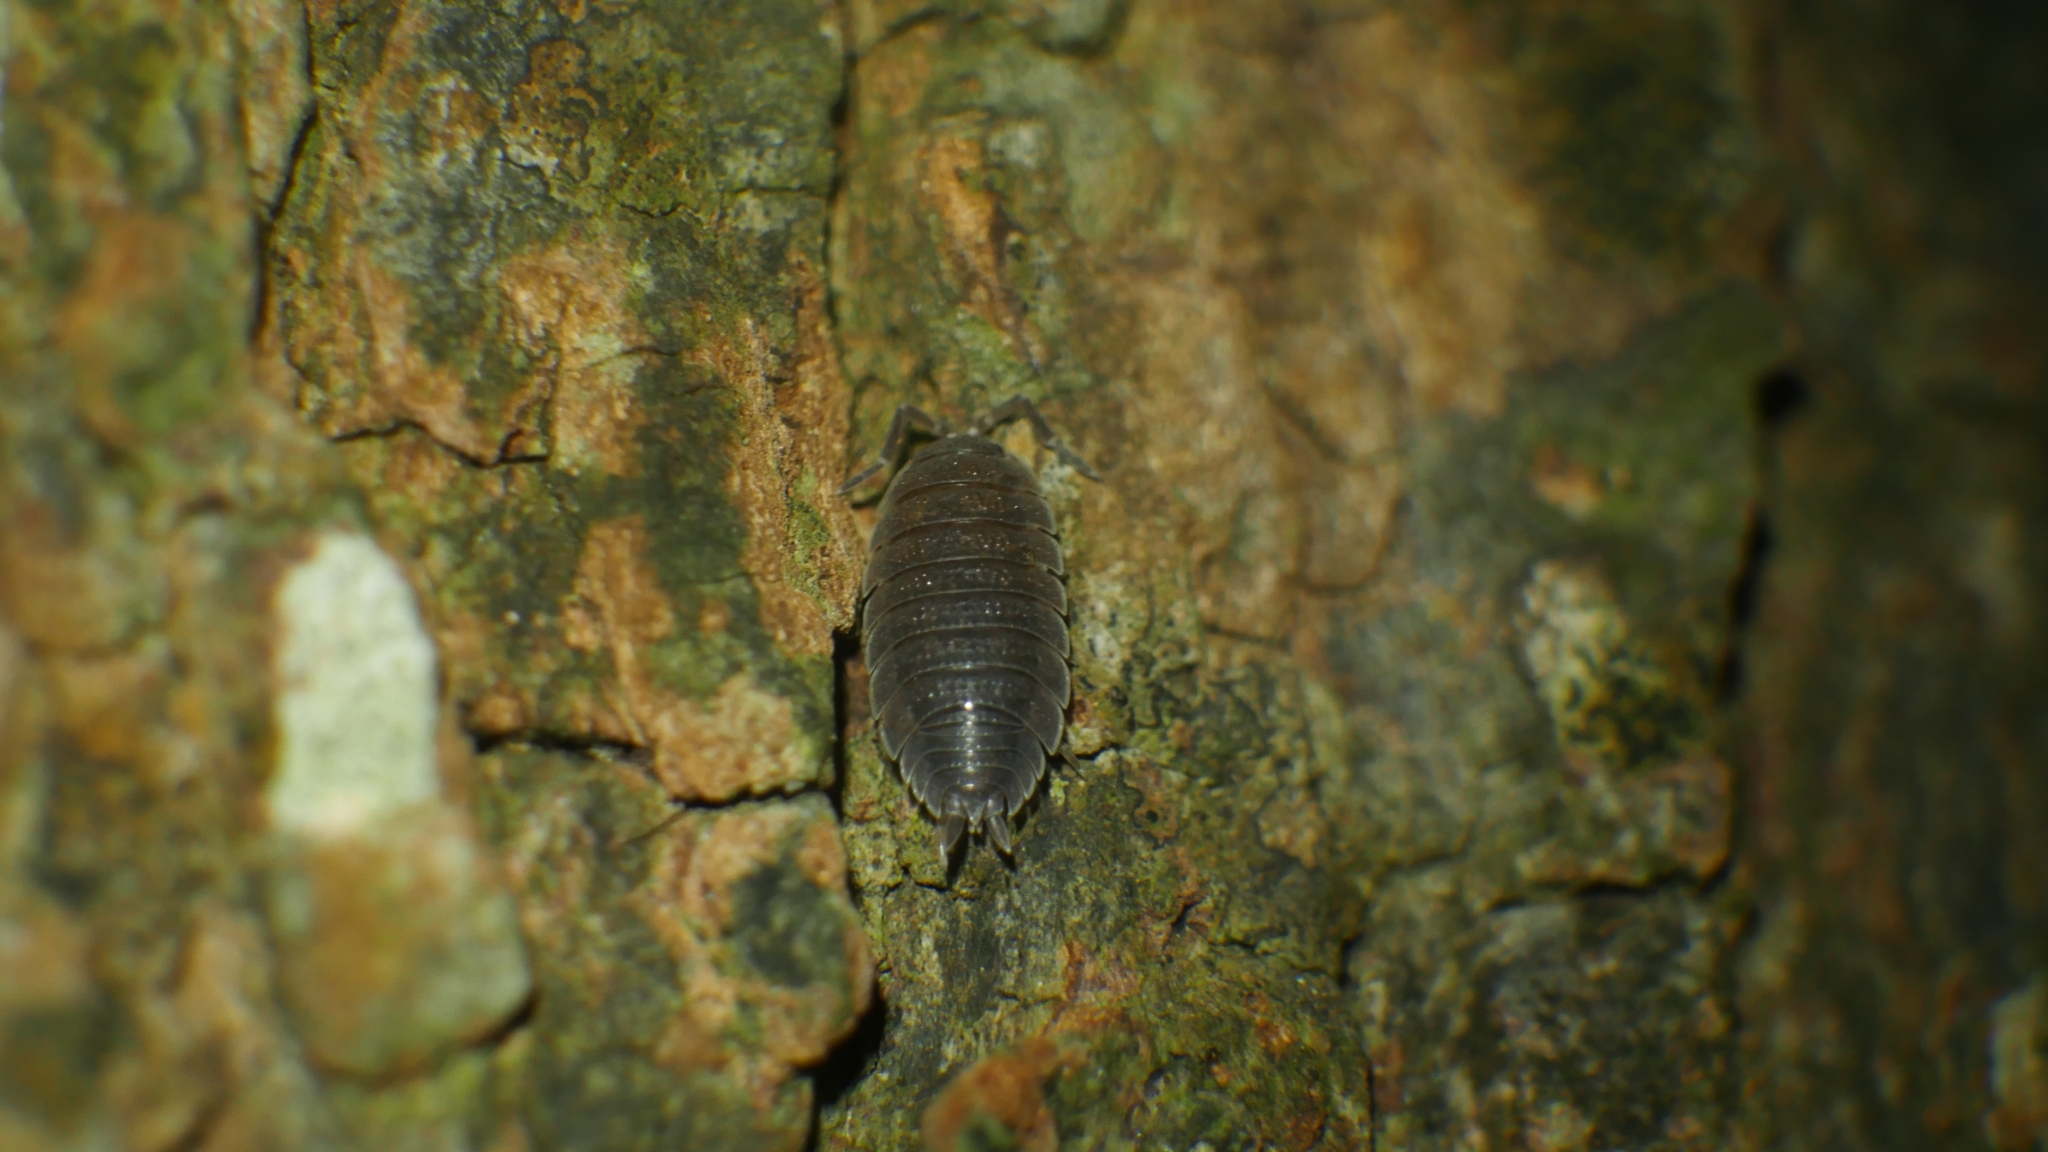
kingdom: Animalia
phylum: Arthropoda
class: Malacostraca
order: Isopoda
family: Porcellionidae
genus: Porcellio
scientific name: Porcellio scaber
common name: Common rough woodlouse
